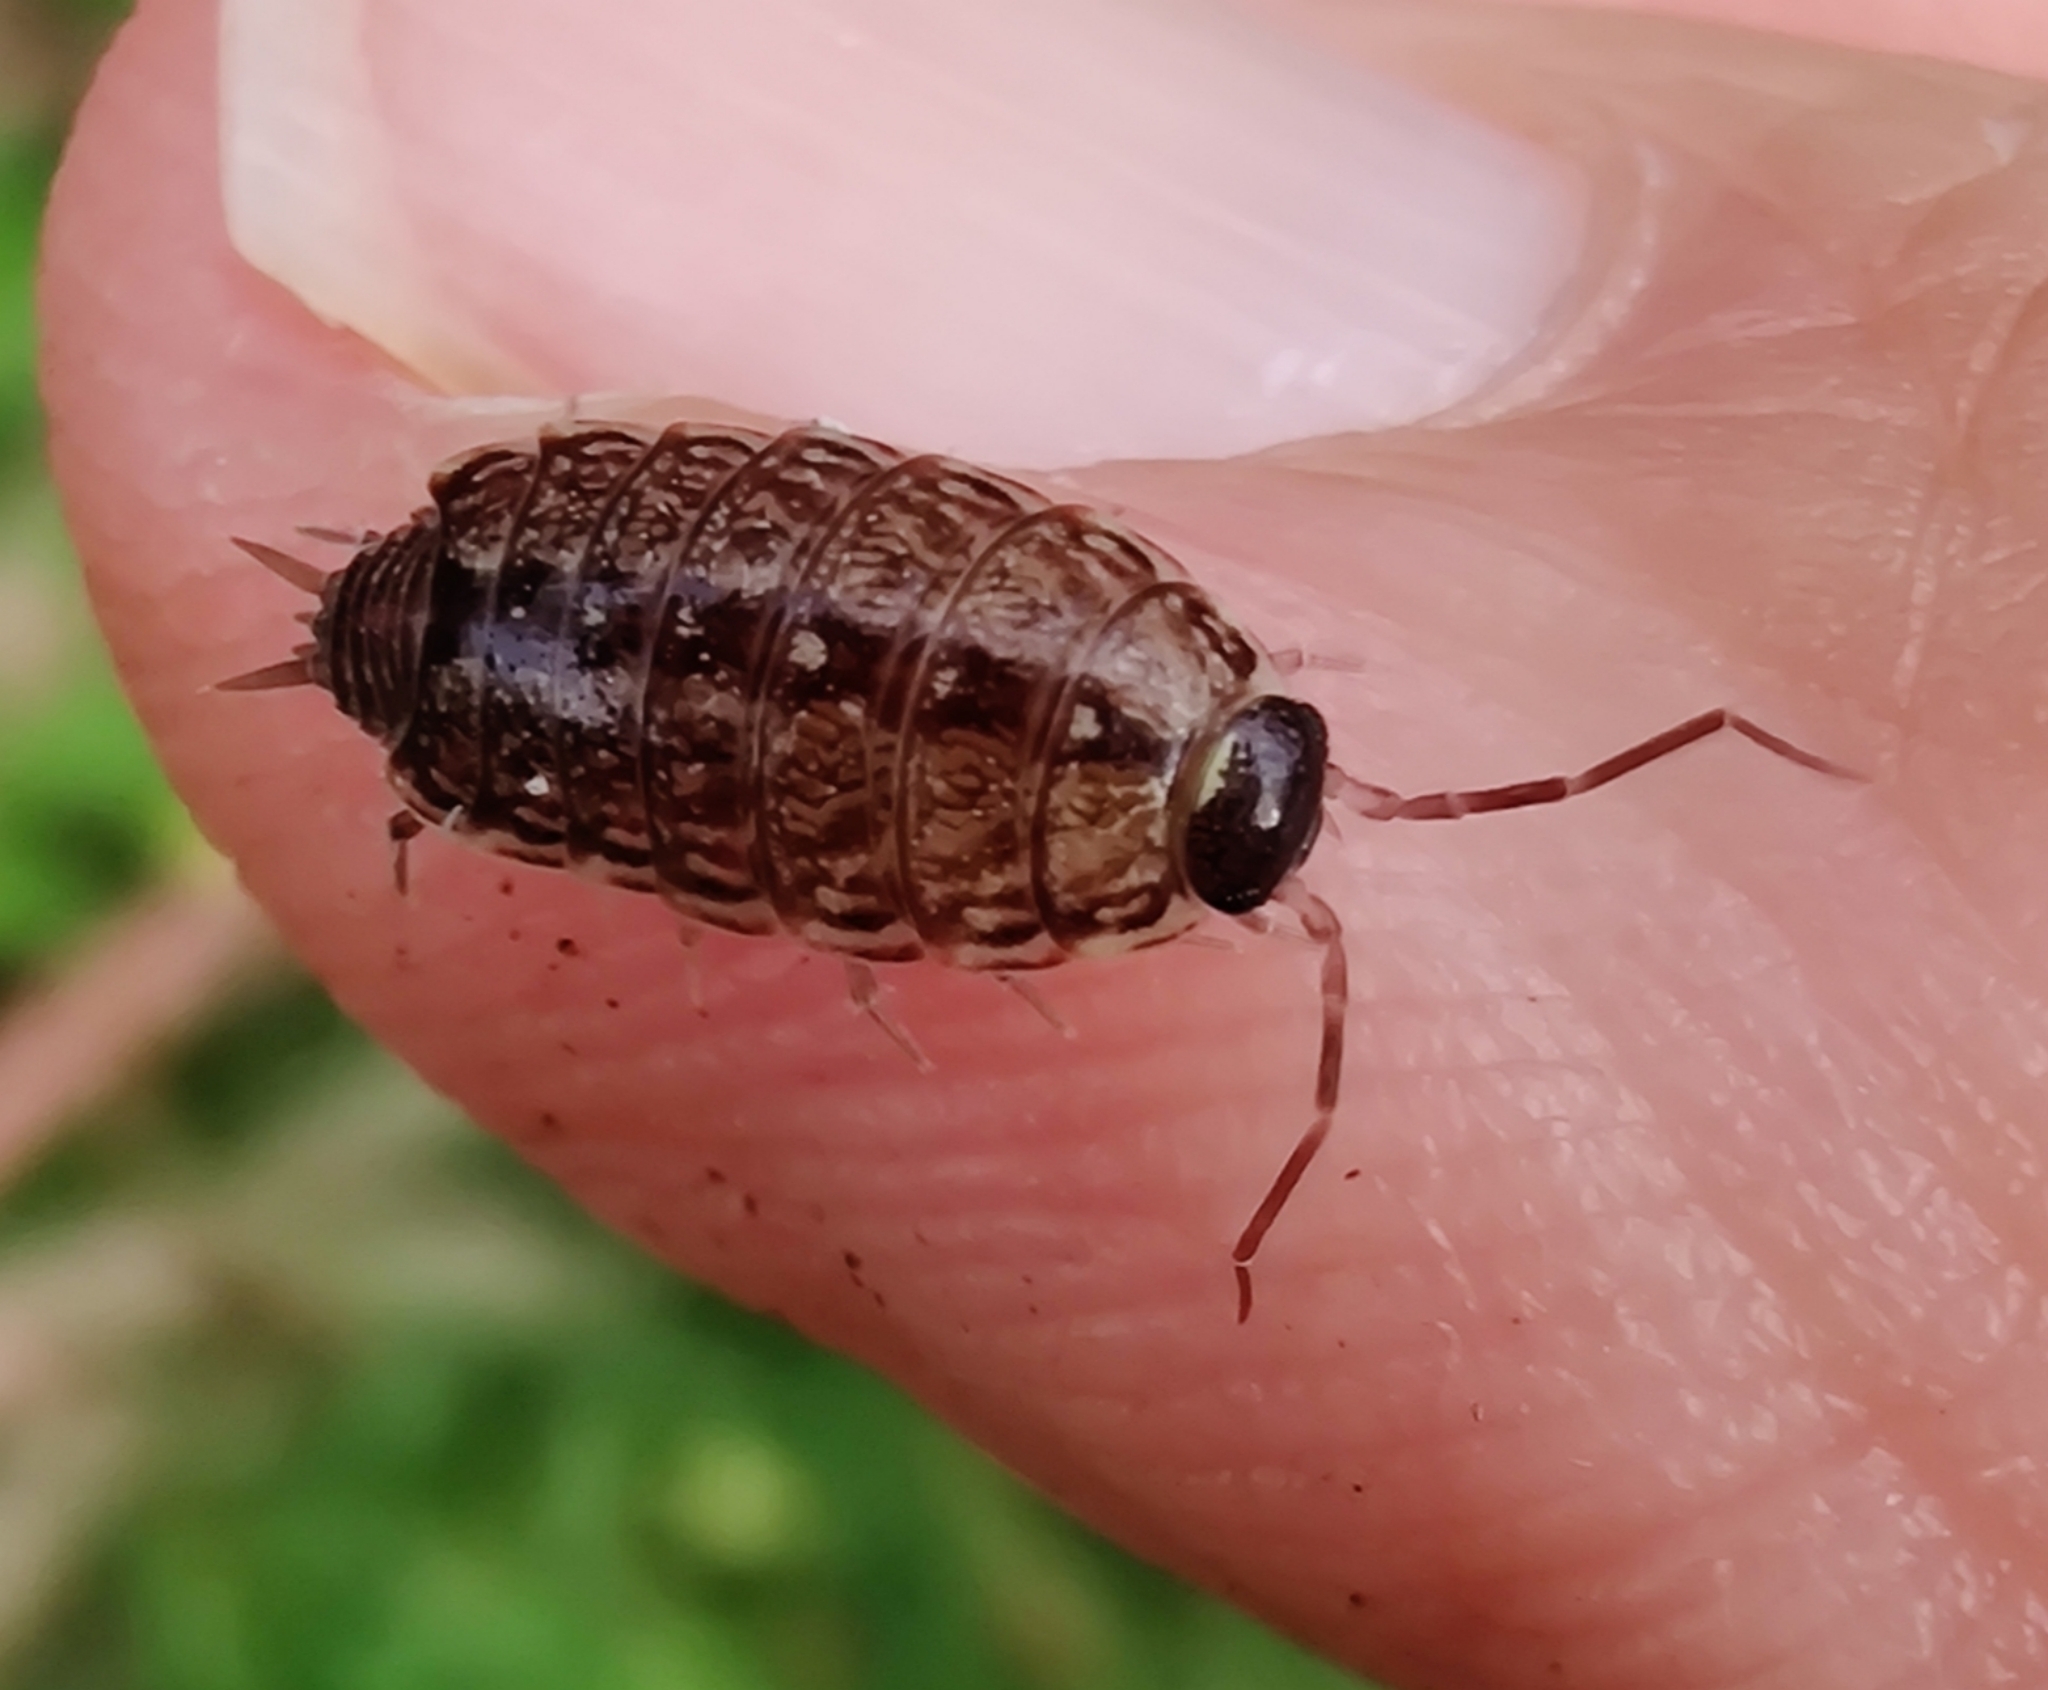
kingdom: Animalia
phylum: Arthropoda
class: Malacostraca
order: Isopoda
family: Philosciidae
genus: Philoscia
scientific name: Philoscia muscorum
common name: Common striped woodlouse
